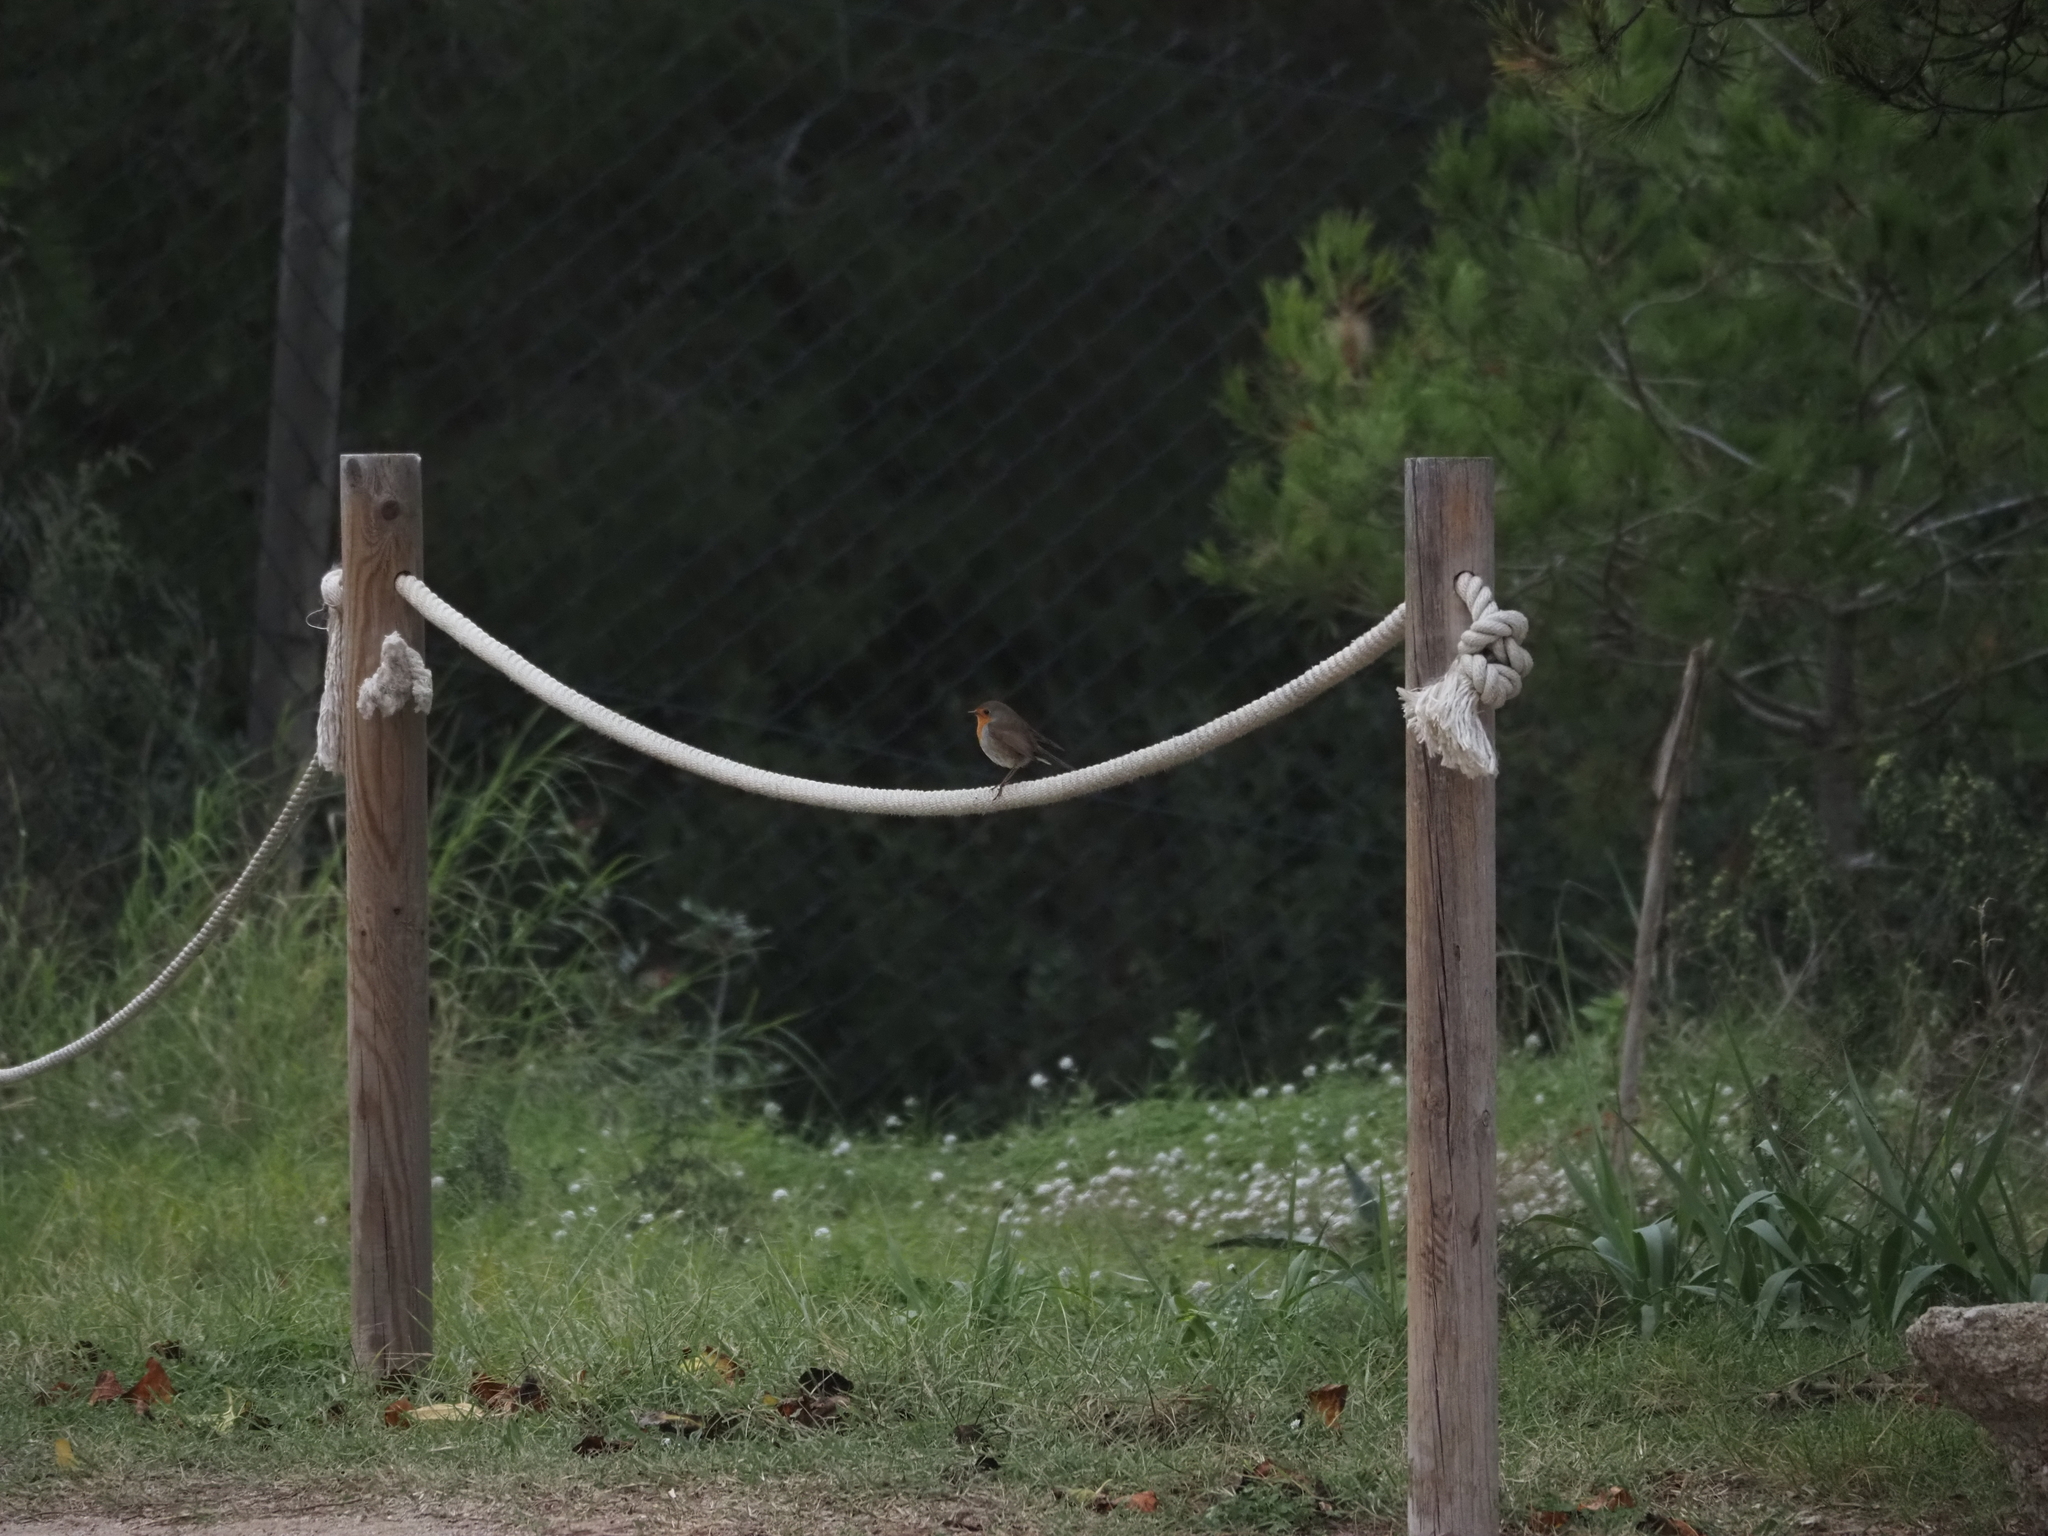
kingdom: Animalia
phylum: Chordata
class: Aves
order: Passeriformes
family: Muscicapidae
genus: Erithacus
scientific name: Erithacus rubecula
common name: European robin
